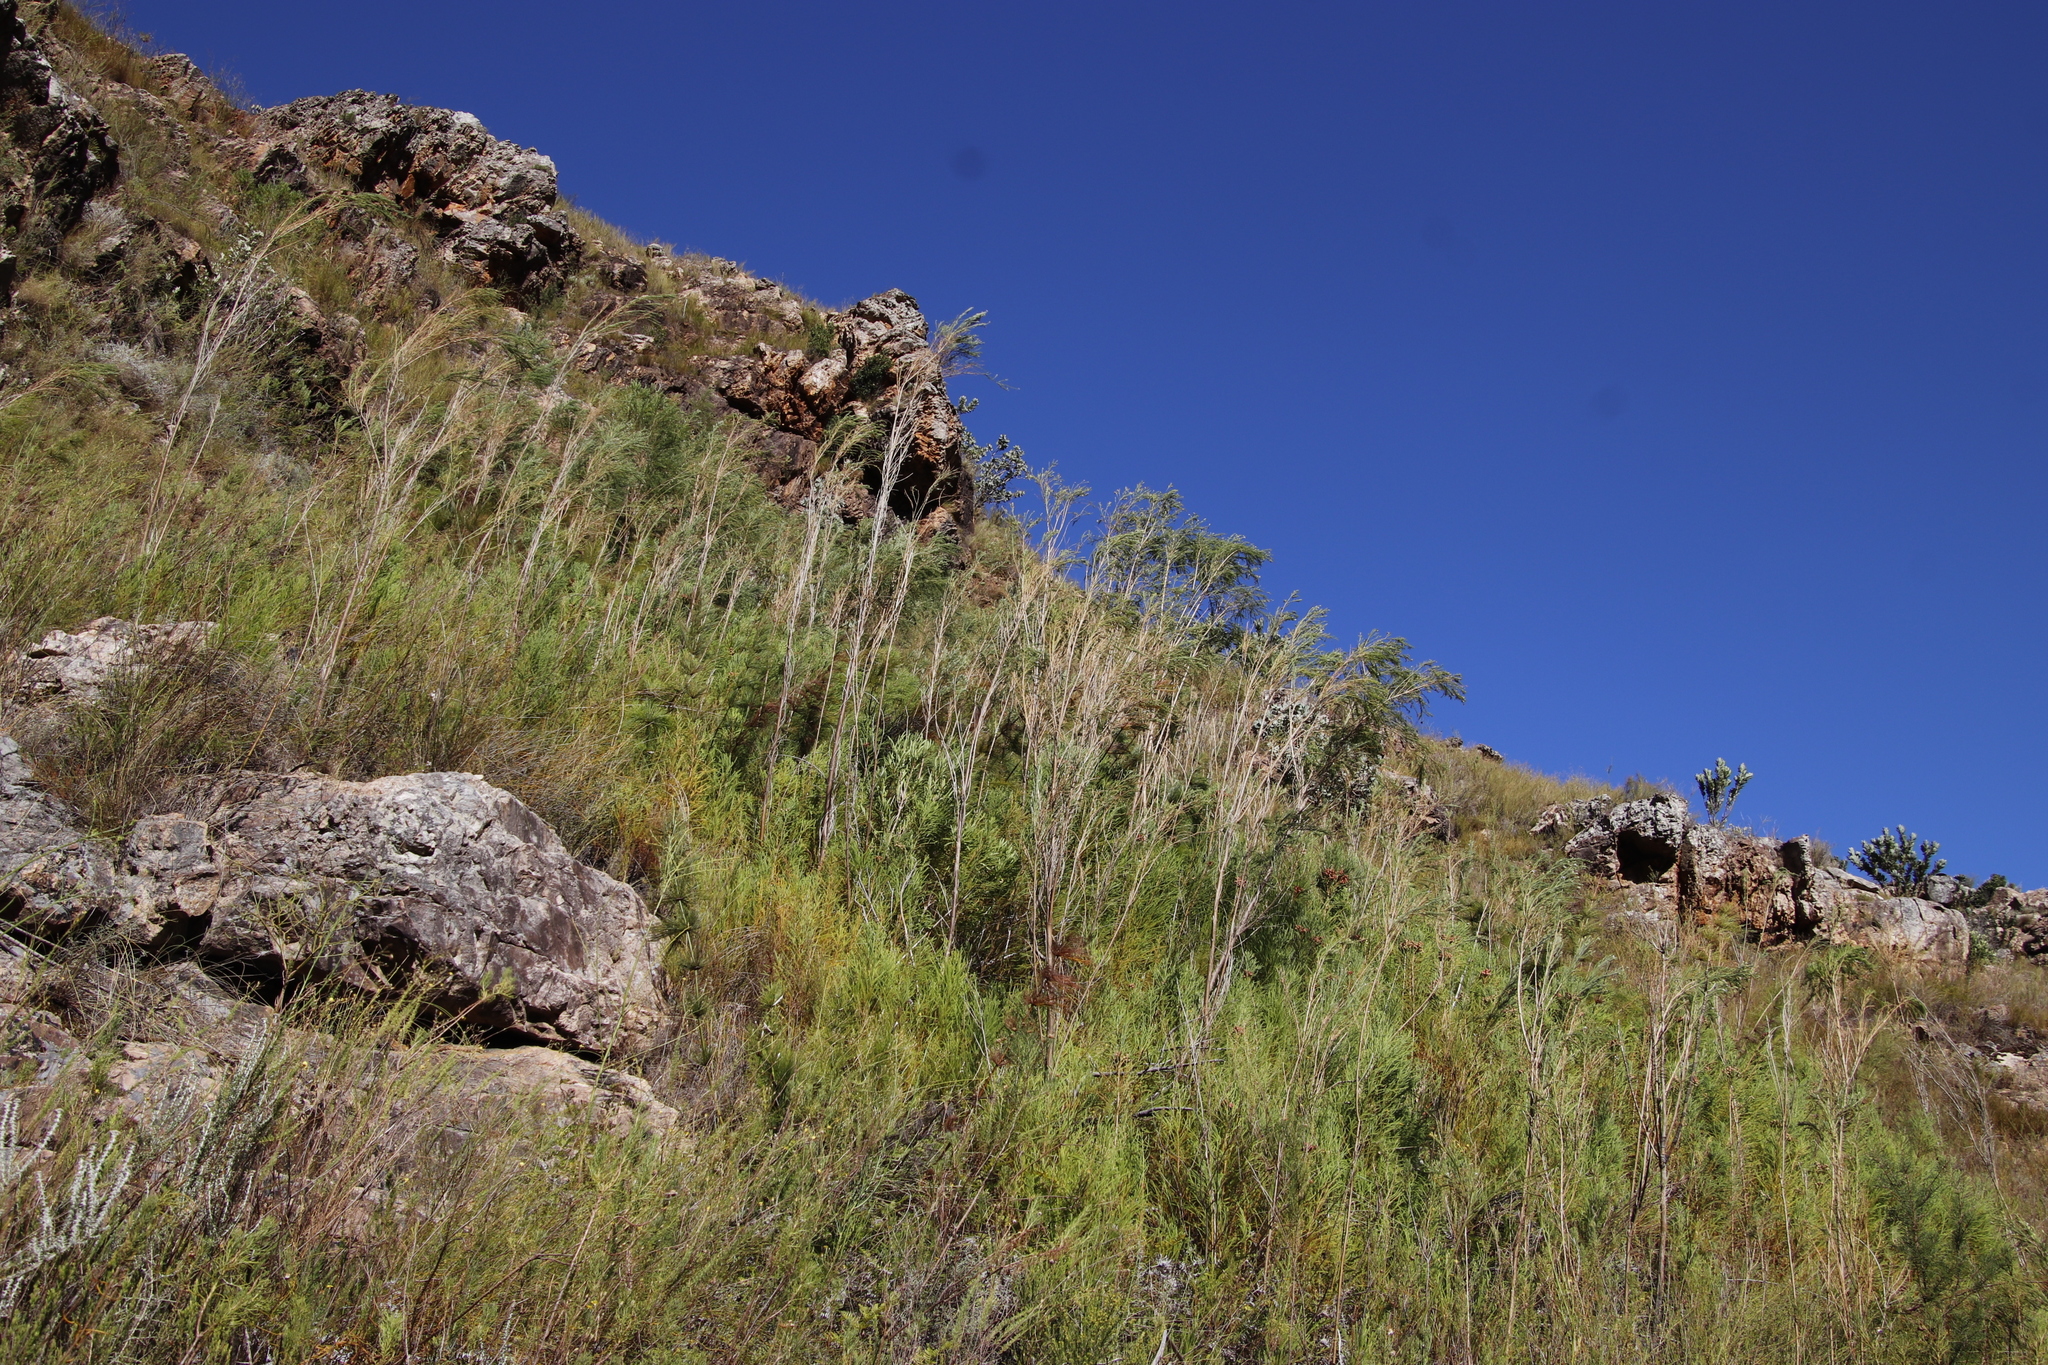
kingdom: Plantae
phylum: Tracheophyta
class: Magnoliopsida
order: Fabales
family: Fabaceae
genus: Psoralea
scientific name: Psoralea fleta
